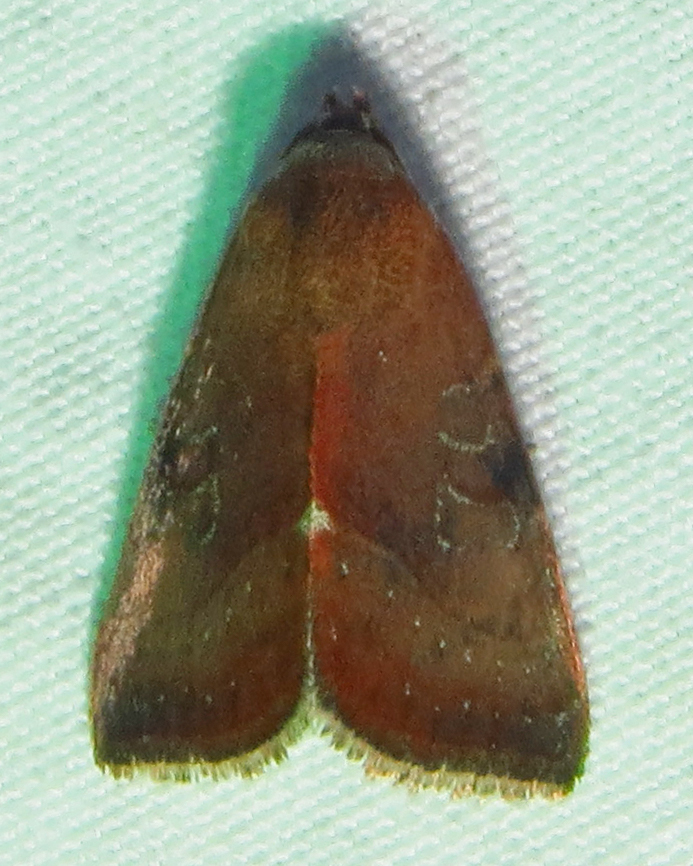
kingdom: Animalia
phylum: Arthropoda
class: Insecta
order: Lepidoptera
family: Noctuidae
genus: Galgula
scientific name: Galgula partita
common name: Wedgeling
